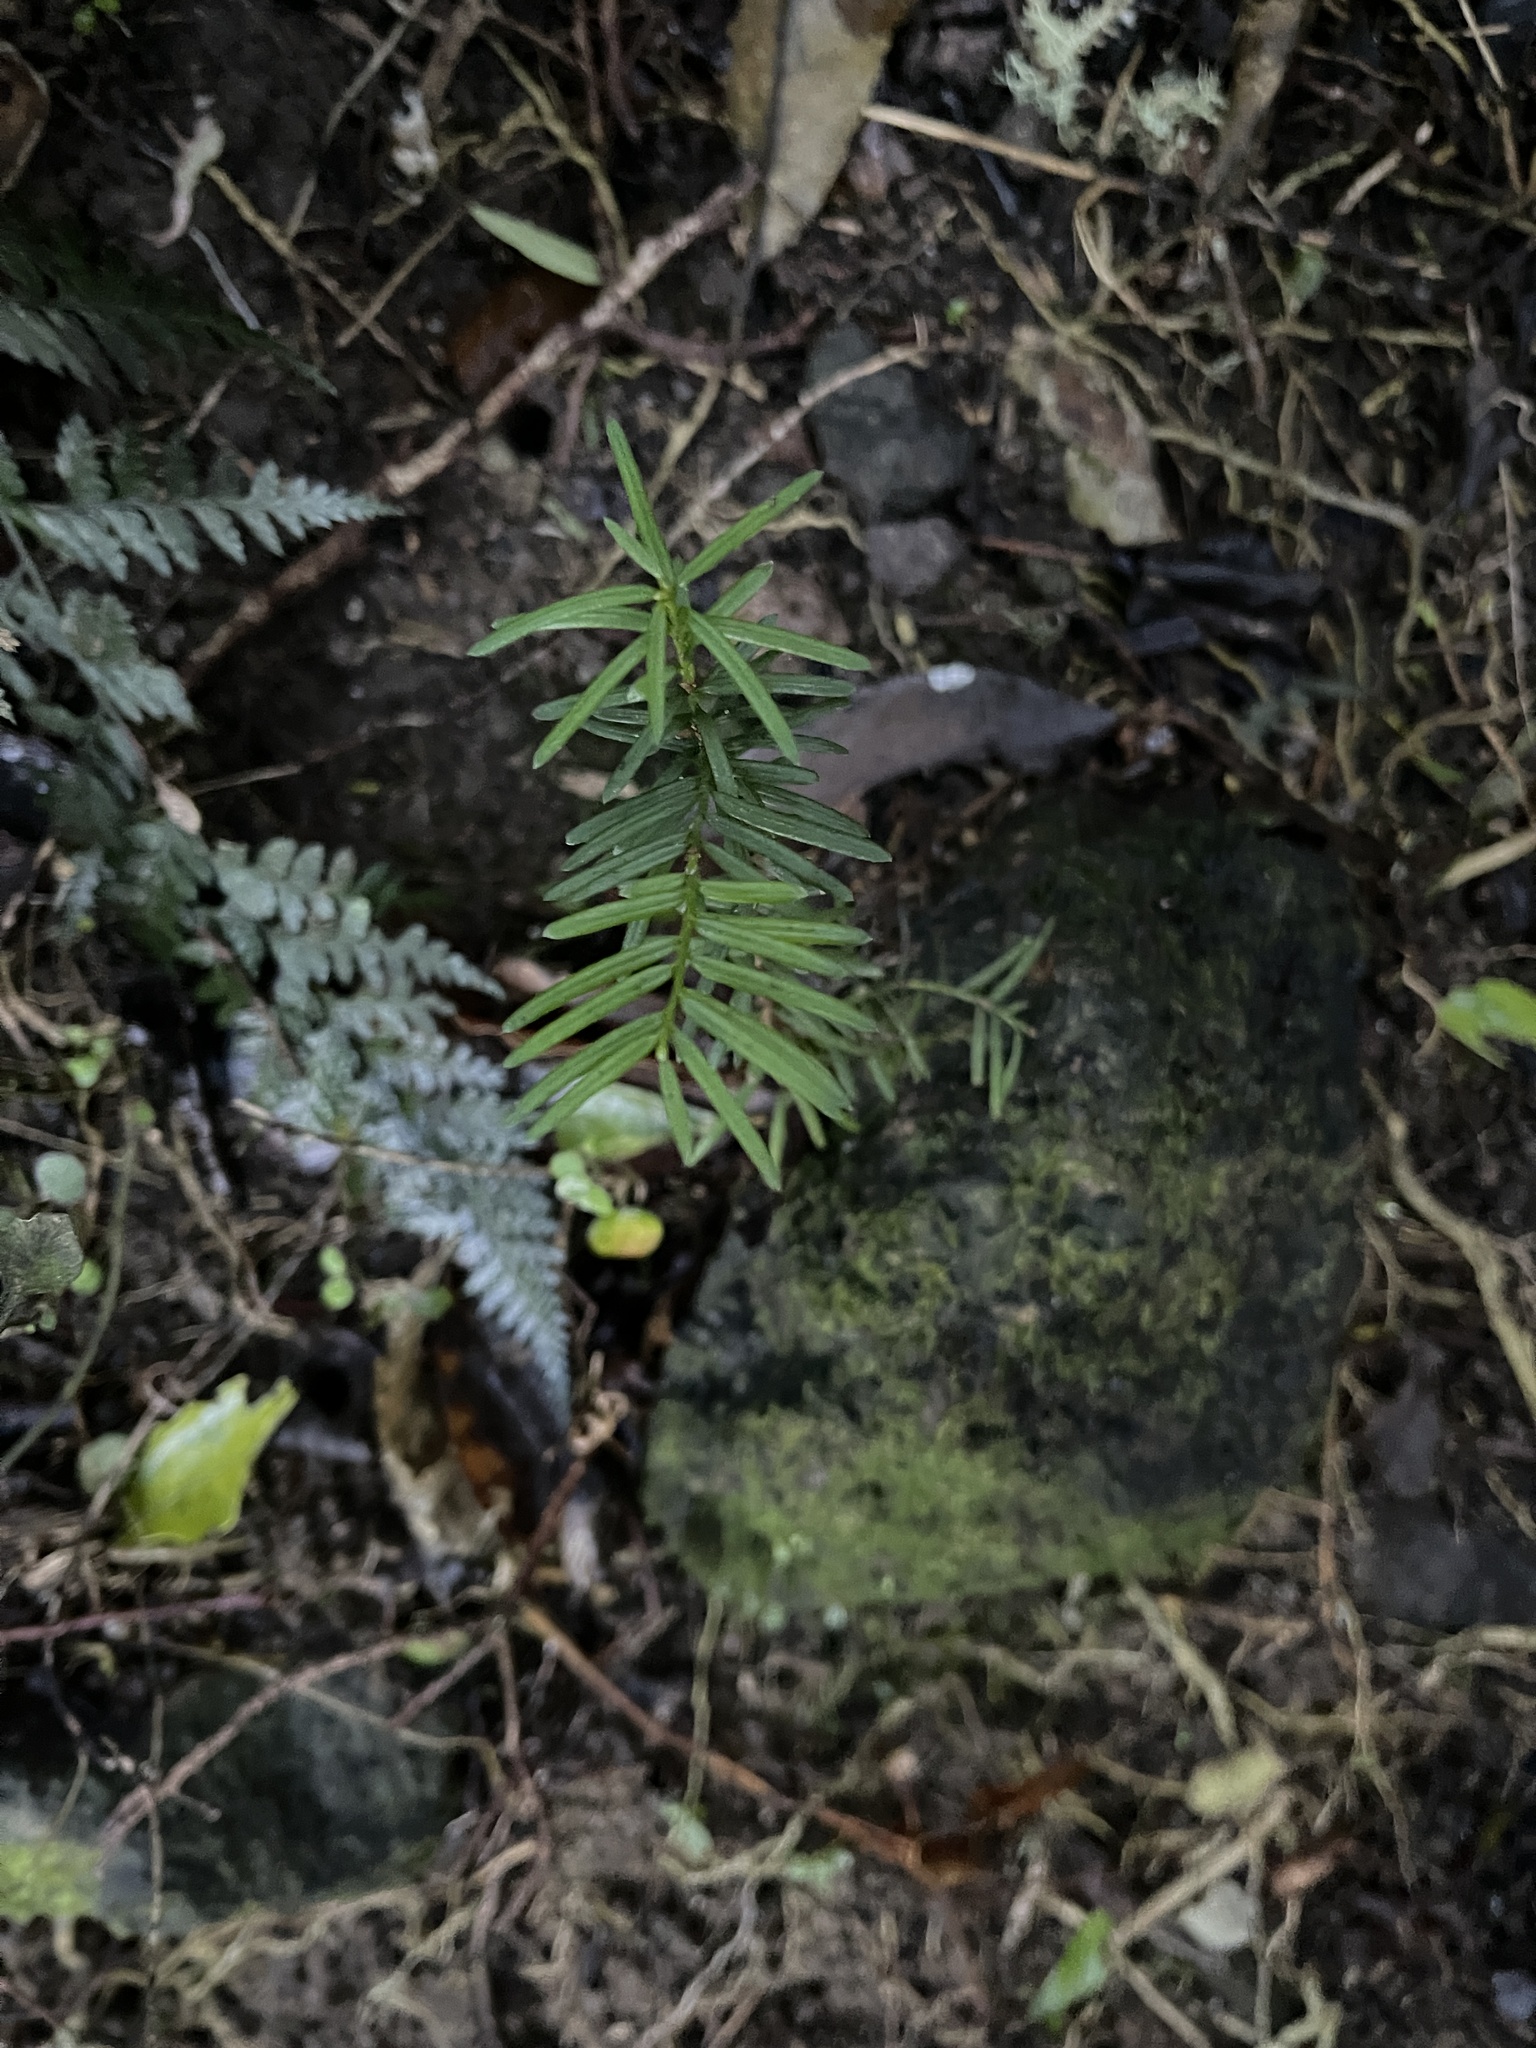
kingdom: Plantae
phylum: Tracheophyta
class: Pinopsida
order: Pinales
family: Podocarpaceae
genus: Prumnopitys
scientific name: Prumnopitys taxifolia
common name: Matai
